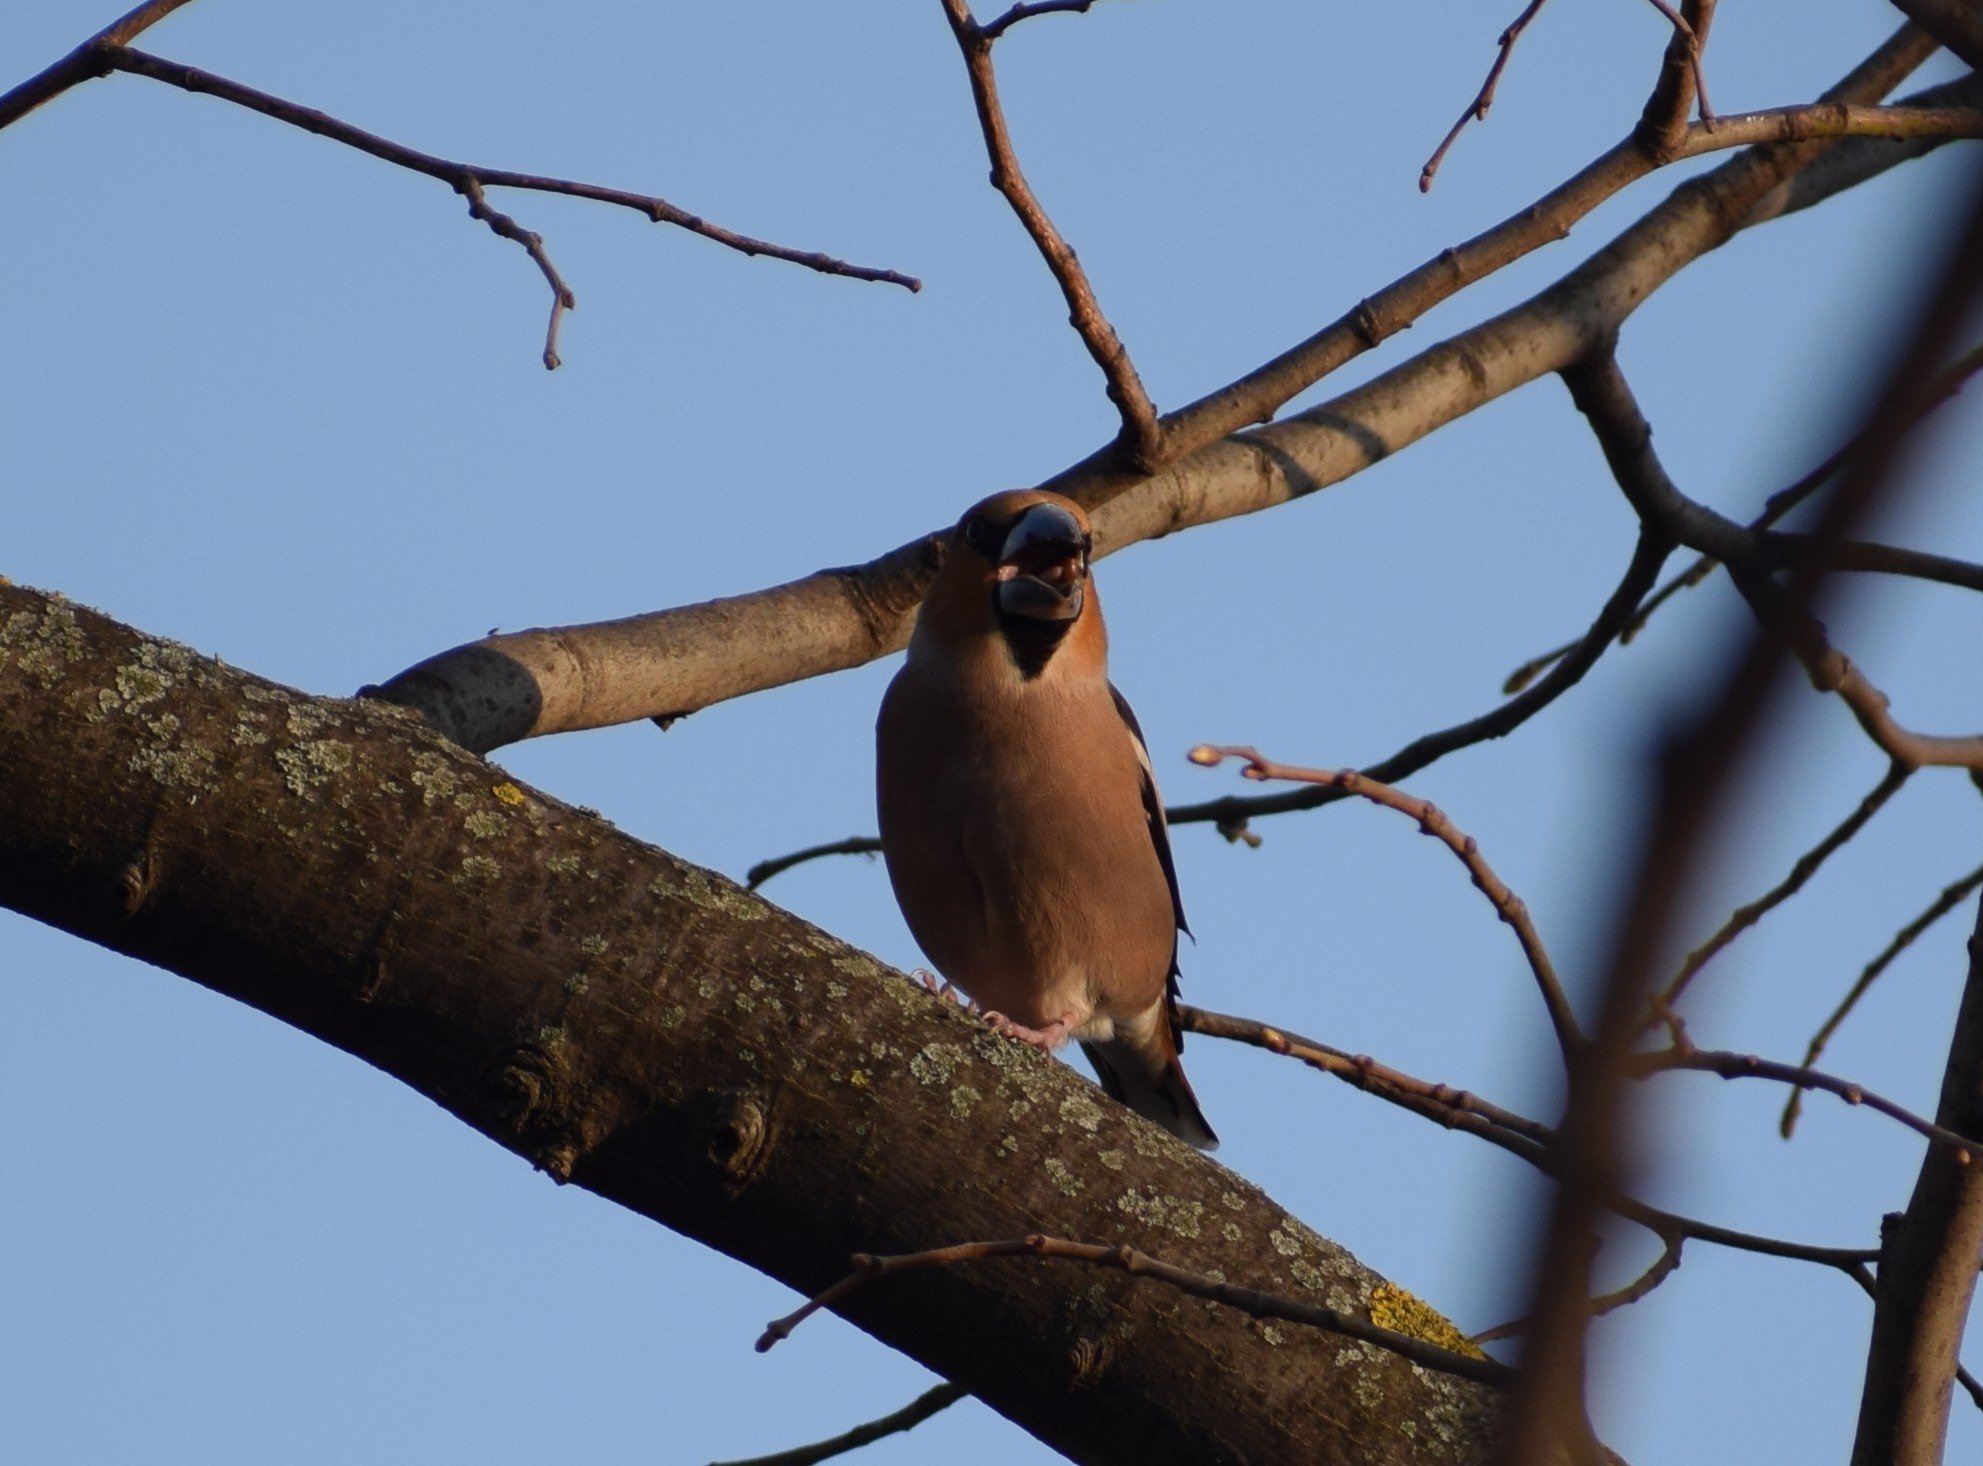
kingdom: Animalia
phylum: Chordata
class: Aves
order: Passeriformes
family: Fringillidae
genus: Coccothraustes
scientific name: Coccothraustes coccothraustes
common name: Hawfinch
